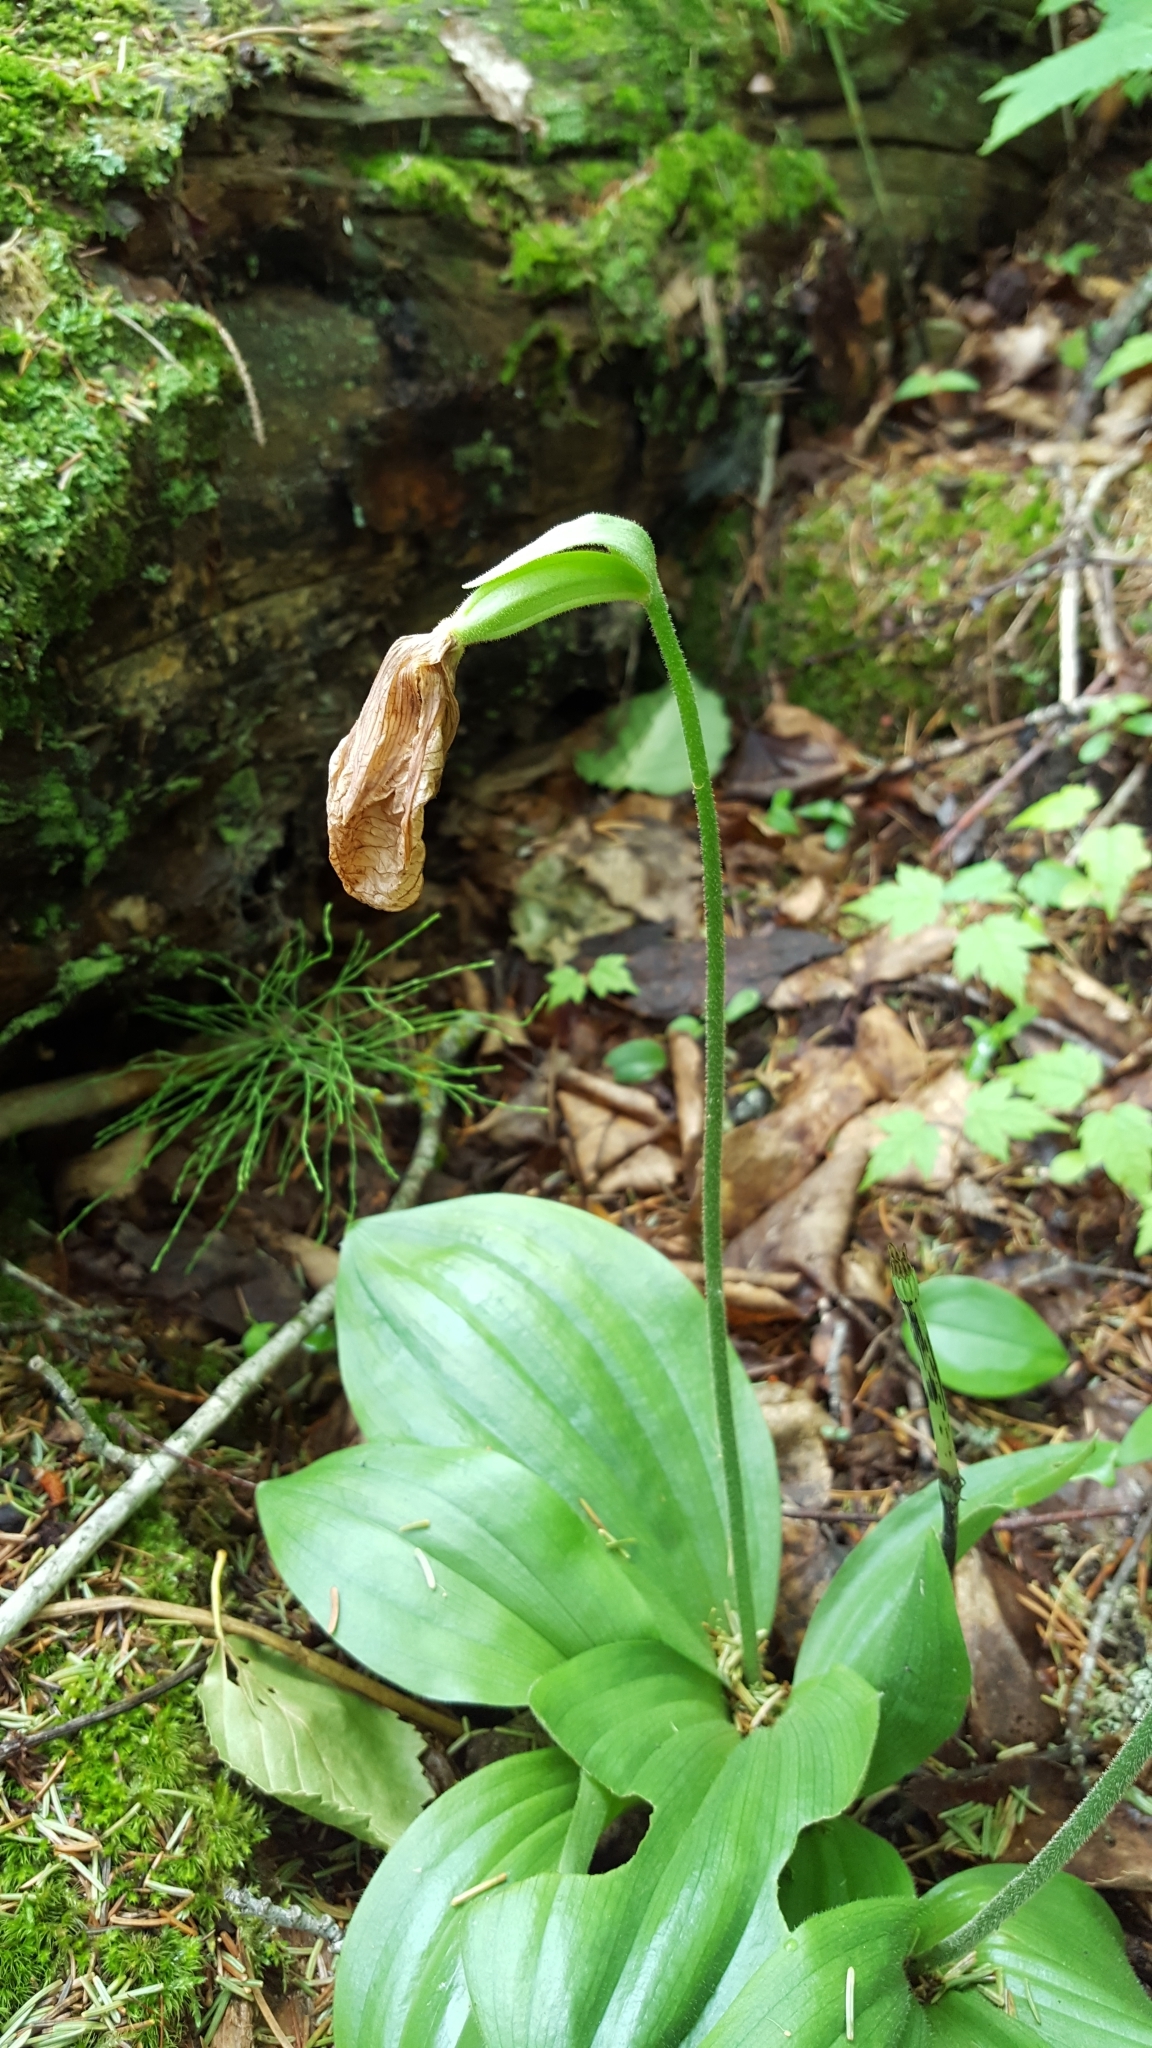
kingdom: Plantae
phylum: Tracheophyta
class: Liliopsida
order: Asparagales
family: Orchidaceae
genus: Cypripedium
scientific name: Cypripedium acaule
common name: Pink lady's-slipper
